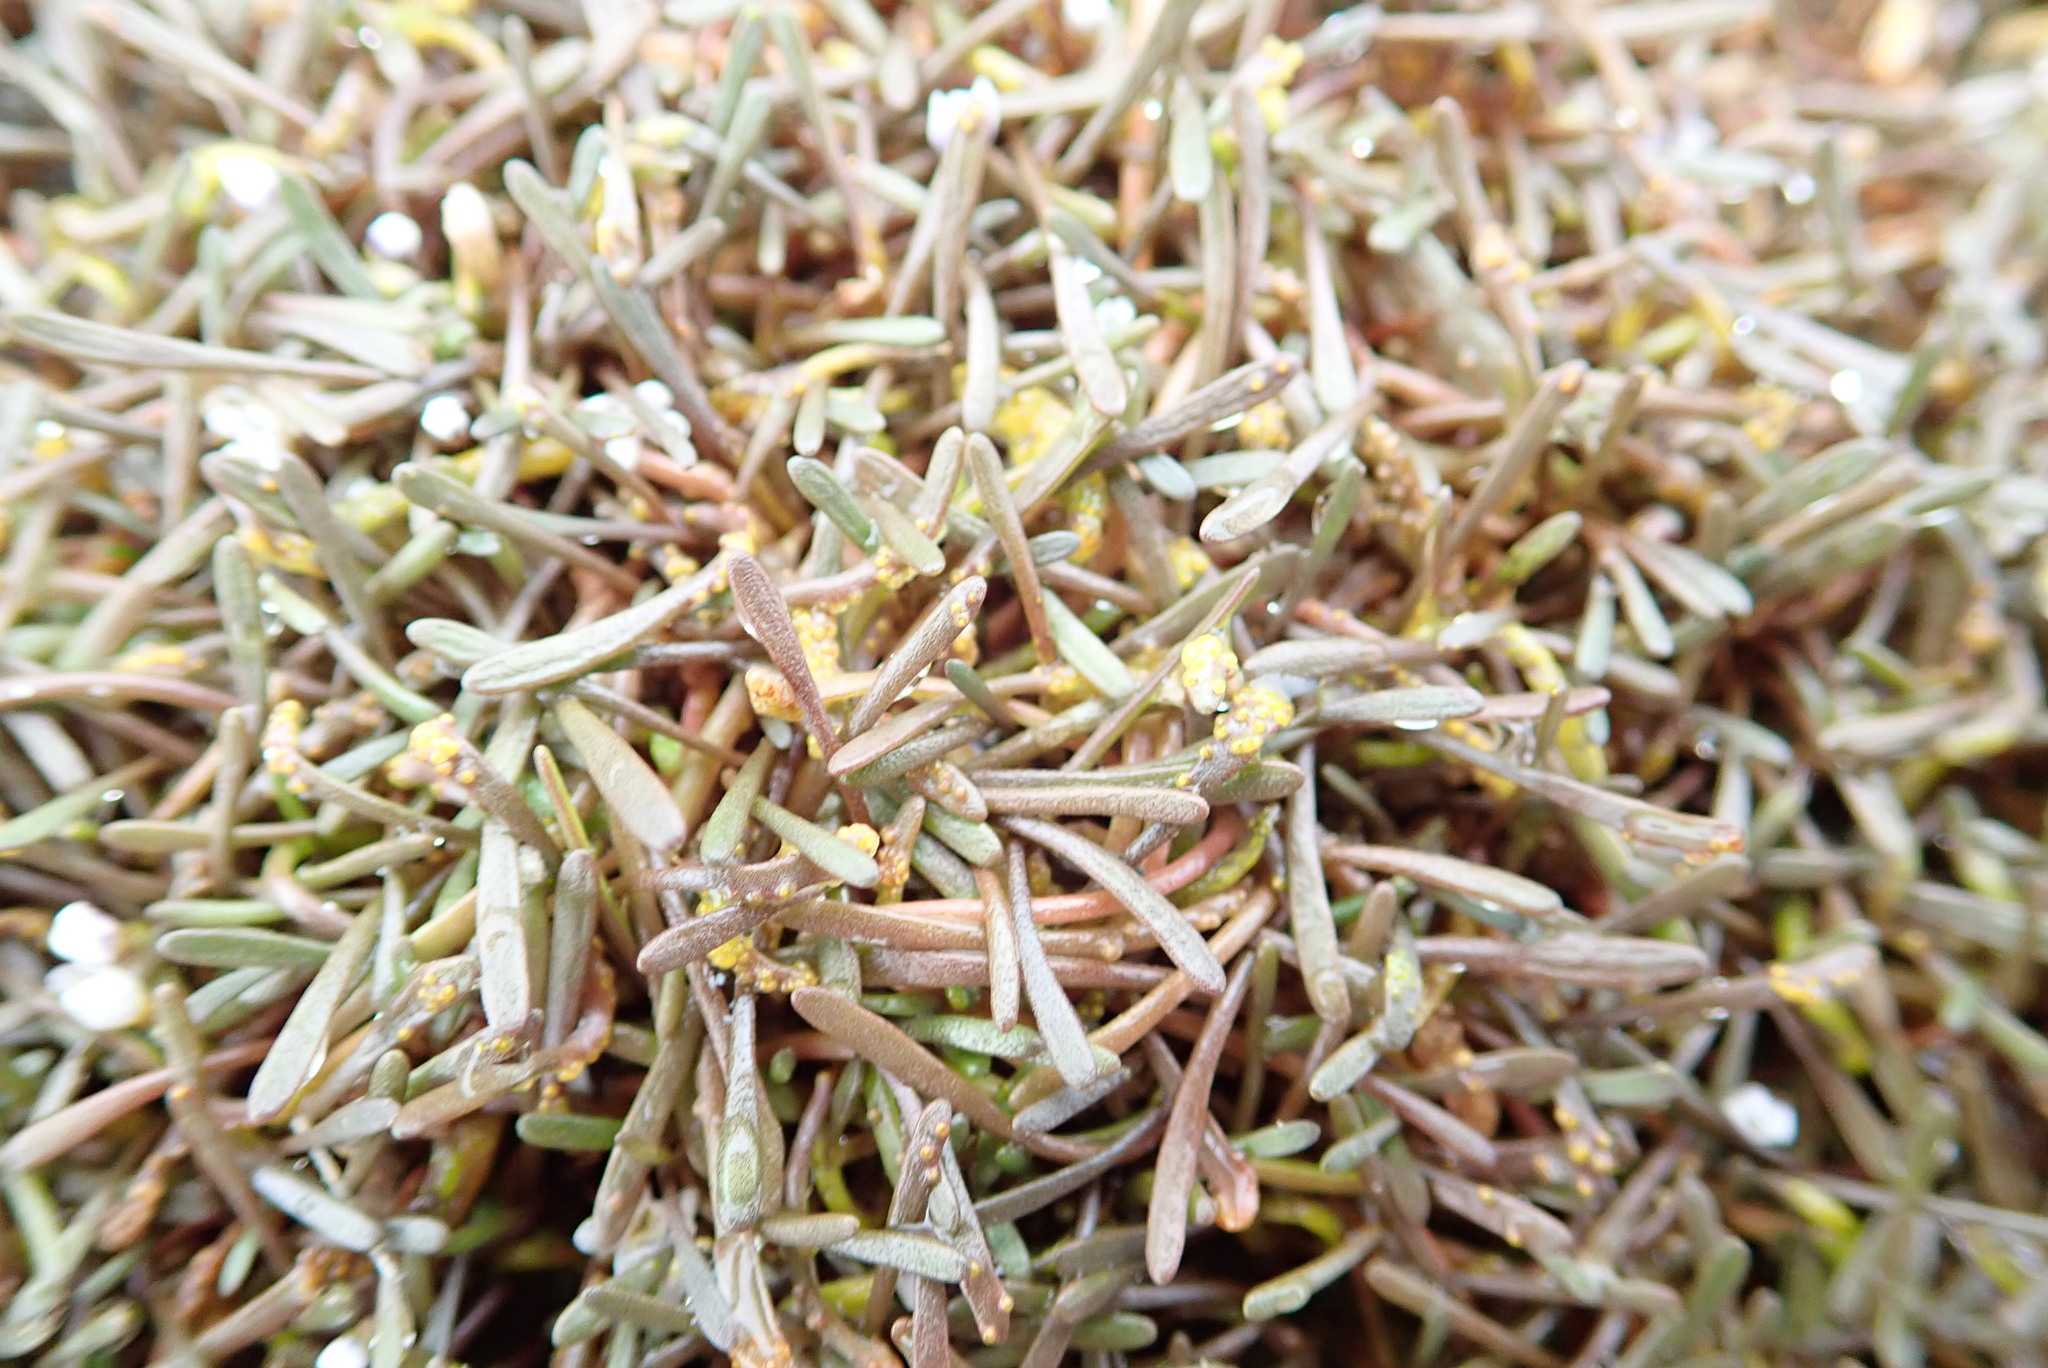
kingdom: Plantae
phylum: Tracheophyta
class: Magnoliopsida
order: Lamiales
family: Scrophulariaceae
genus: Limosella
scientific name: Limosella australis
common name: Welsh mudwort
